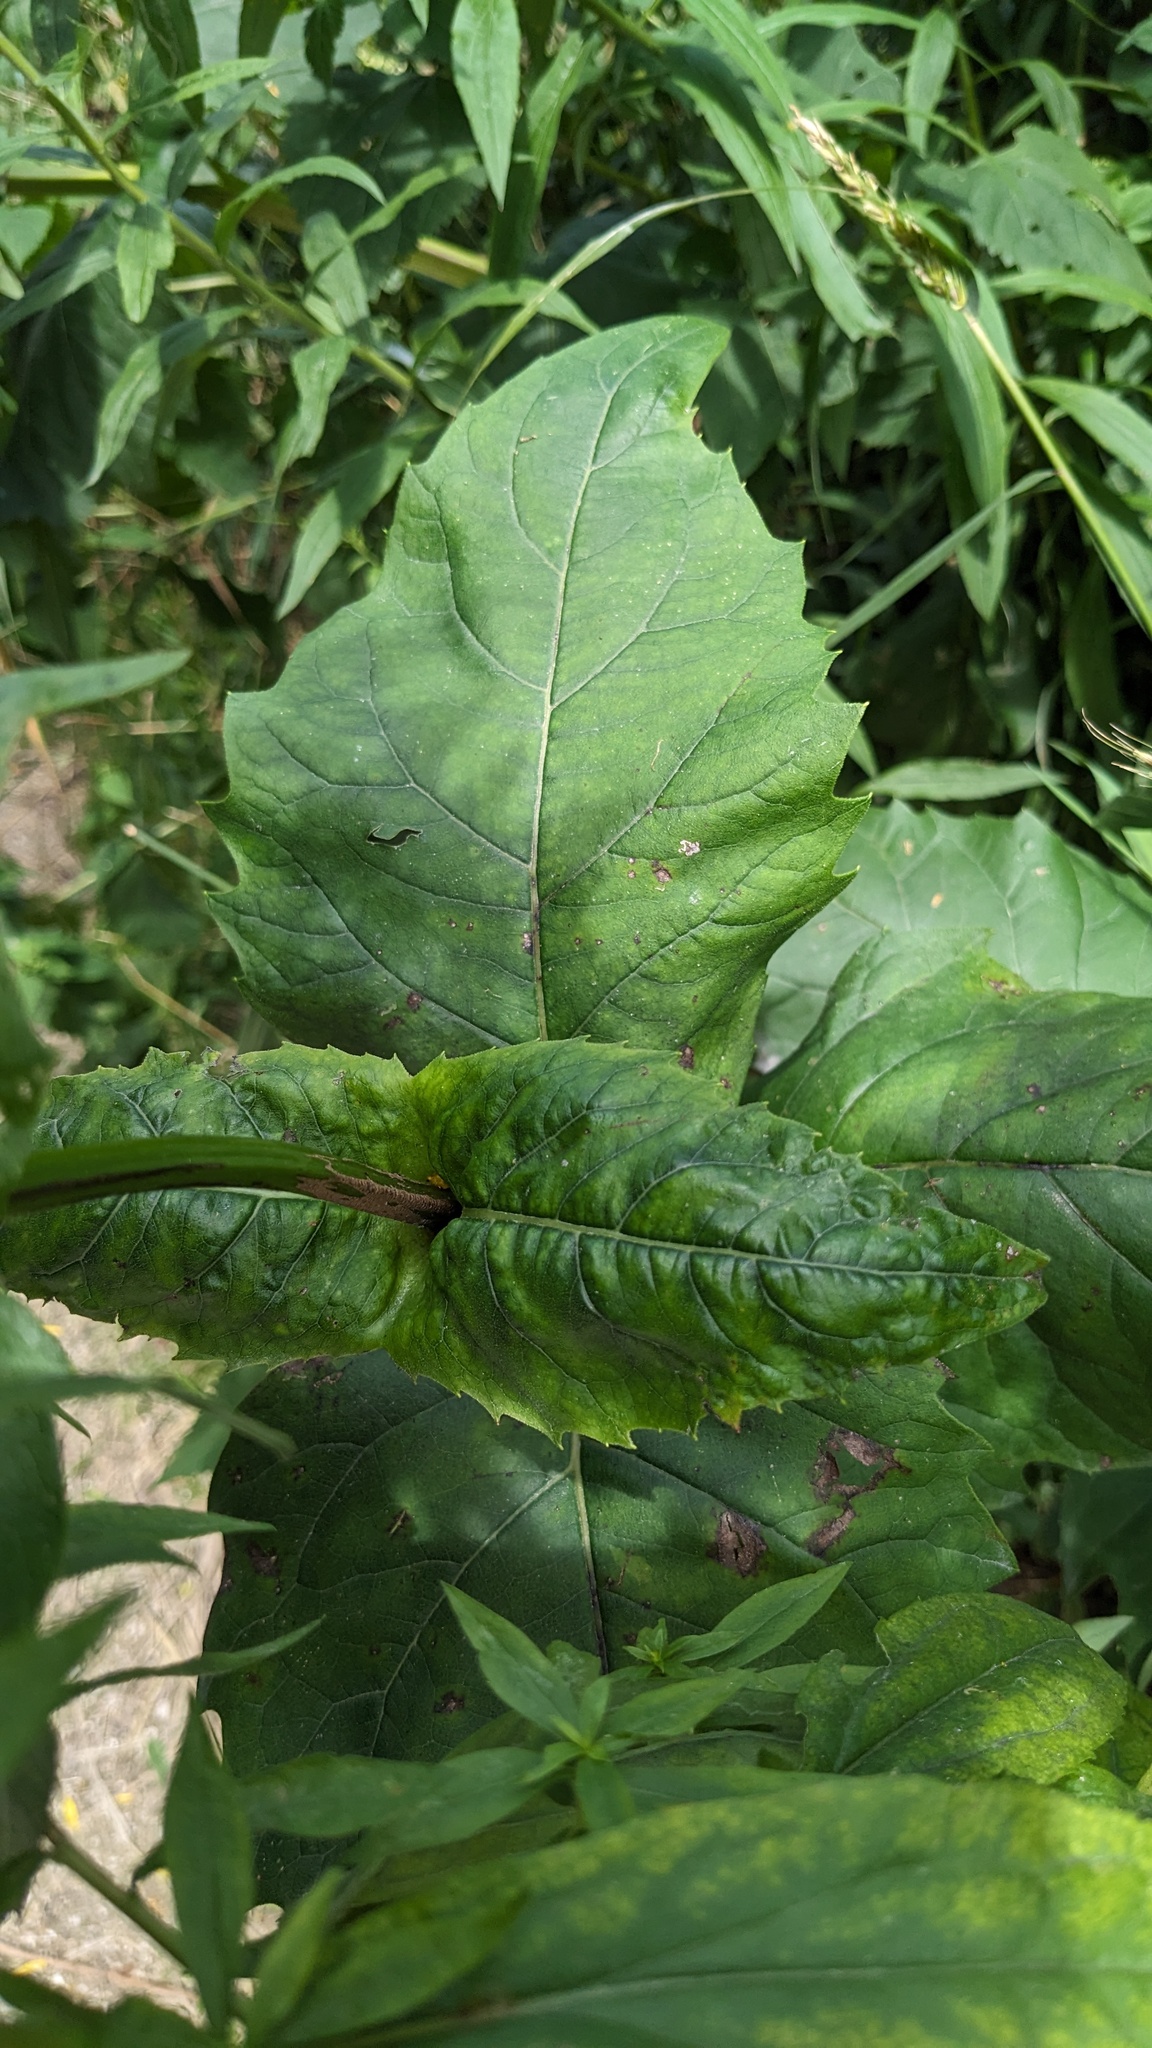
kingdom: Plantae
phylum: Tracheophyta
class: Magnoliopsida
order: Asterales
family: Asteraceae
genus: Silphium
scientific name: Silphium perfoliatum
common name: Cup-plant
